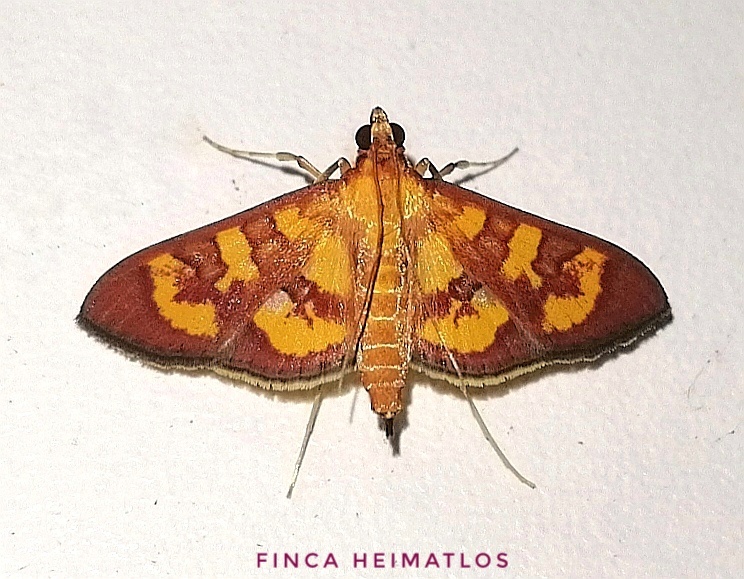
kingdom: Animalia
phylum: Arthropoda
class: Insecta
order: Lepidoptera
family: Crambidae
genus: Trithyris
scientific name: Trithyris
